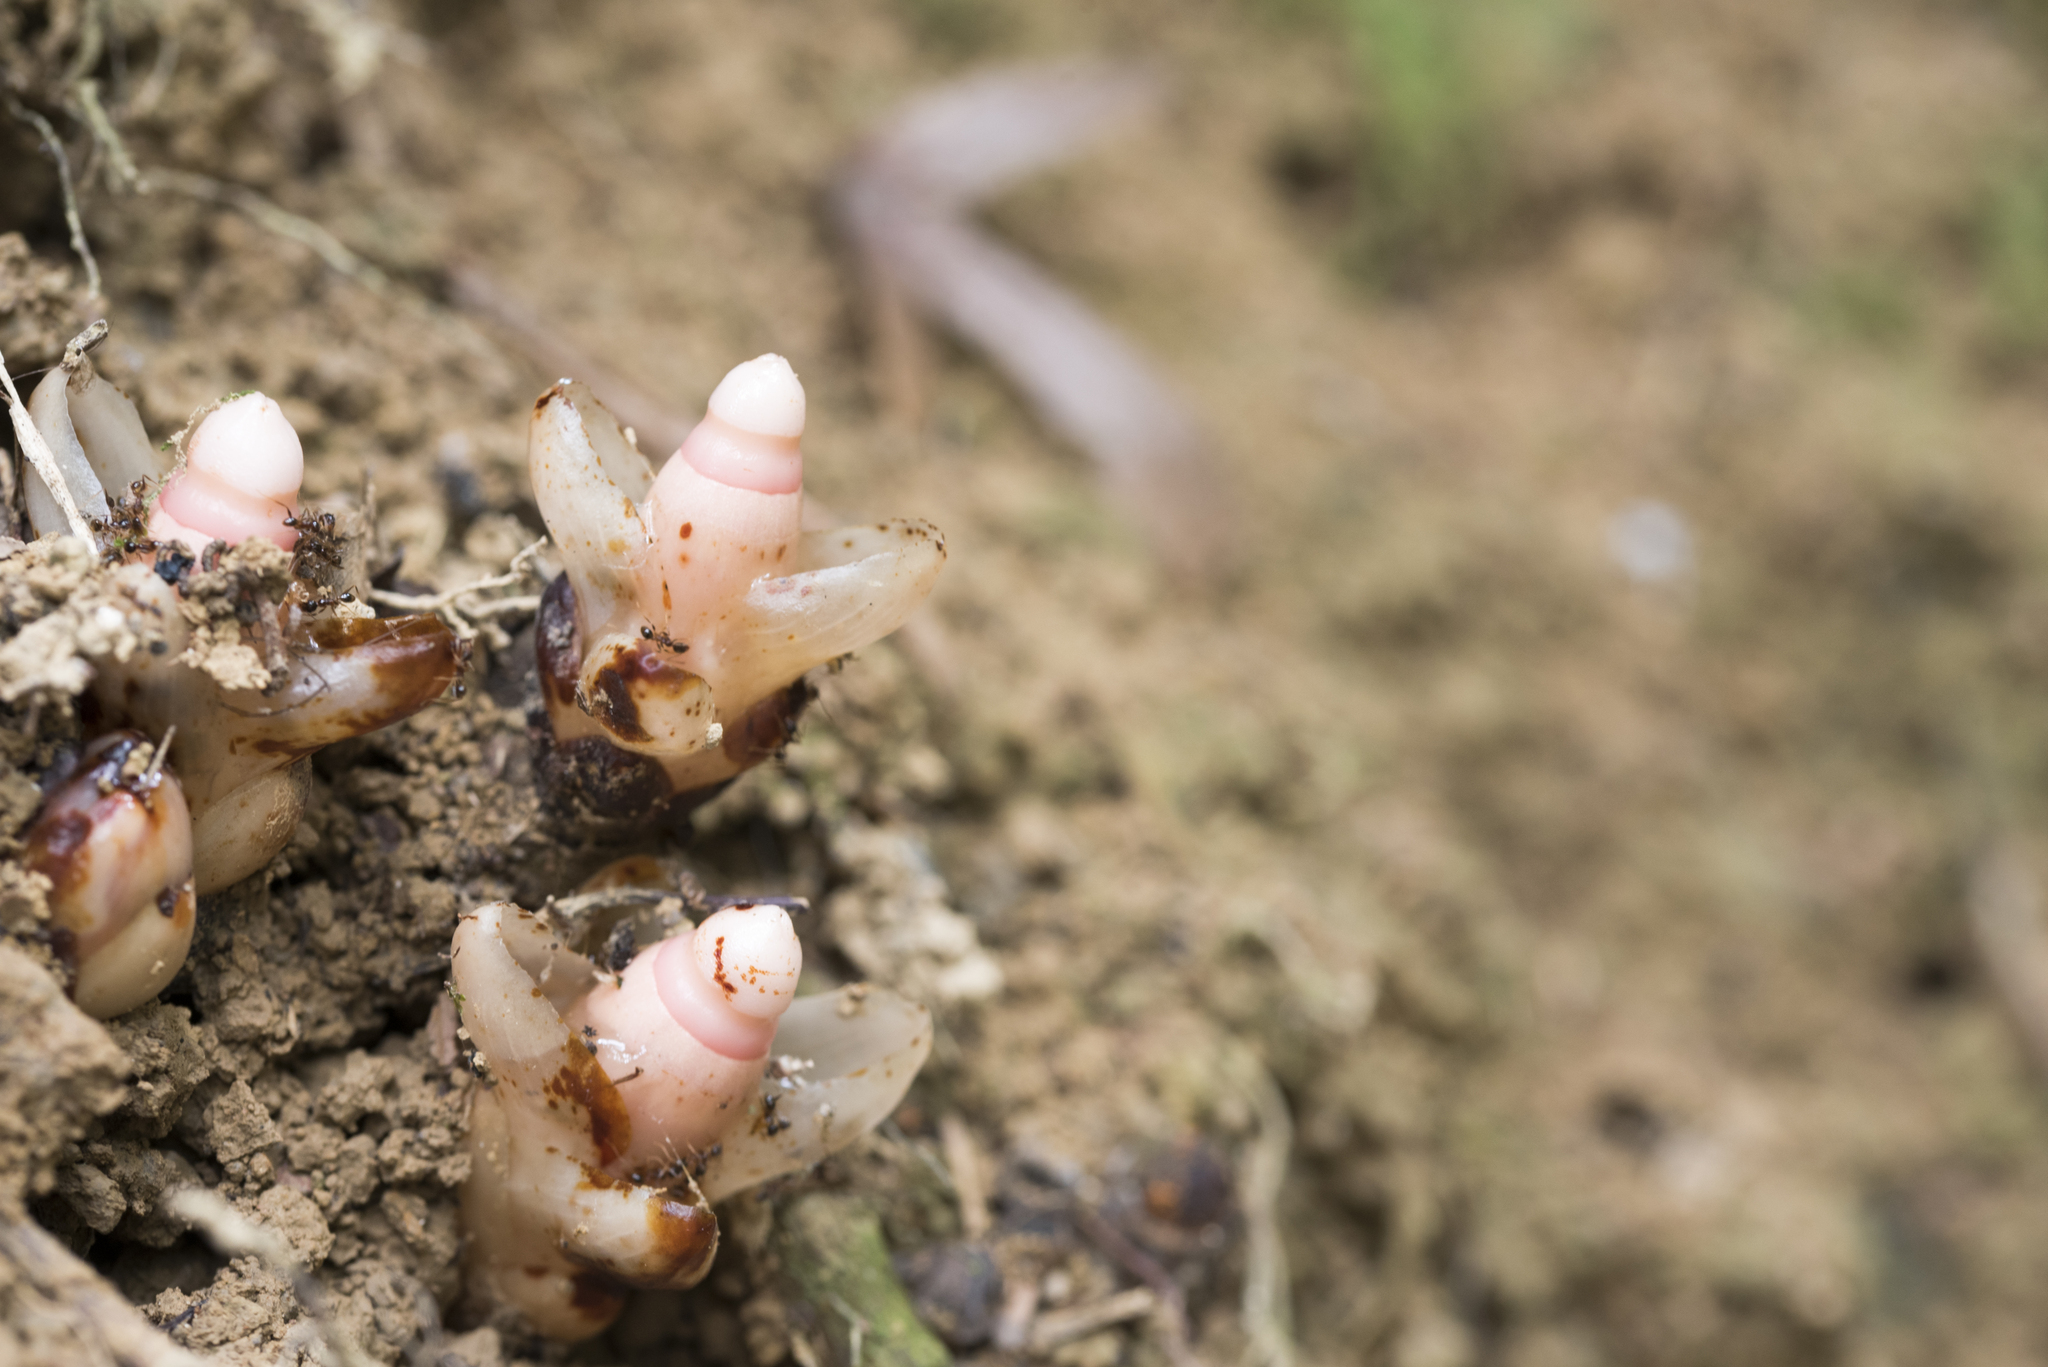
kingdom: Plantae
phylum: Tracheophyta
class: Magnoliopsida
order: Ericales
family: Mitrastemonaceae
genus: Mitrastemon
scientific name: Mitrastemon yamamotoi
